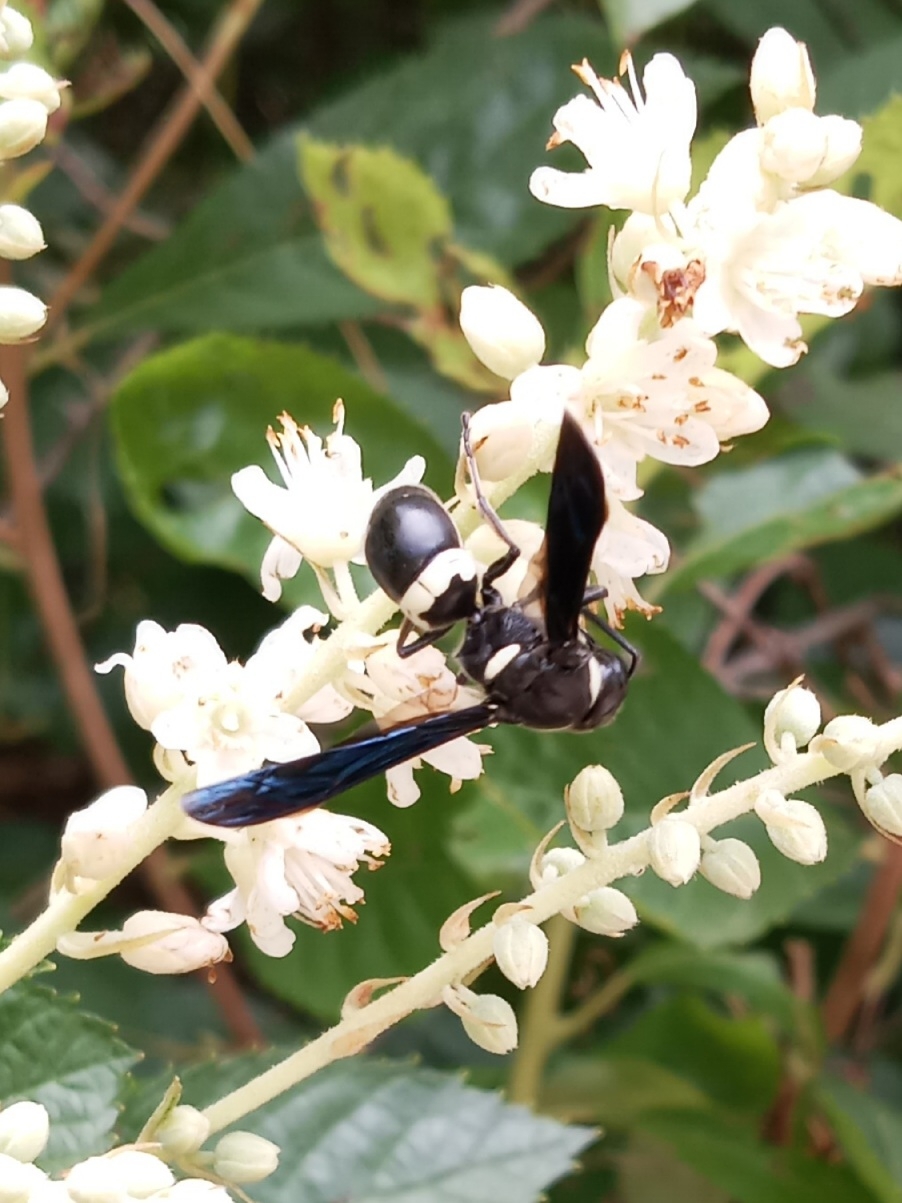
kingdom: Animalia
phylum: Arthropoda
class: Insecta
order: Hymenoptera
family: Eumenidae
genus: Monobia
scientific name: Monobia quadridens
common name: Four-toothed mason wasp
